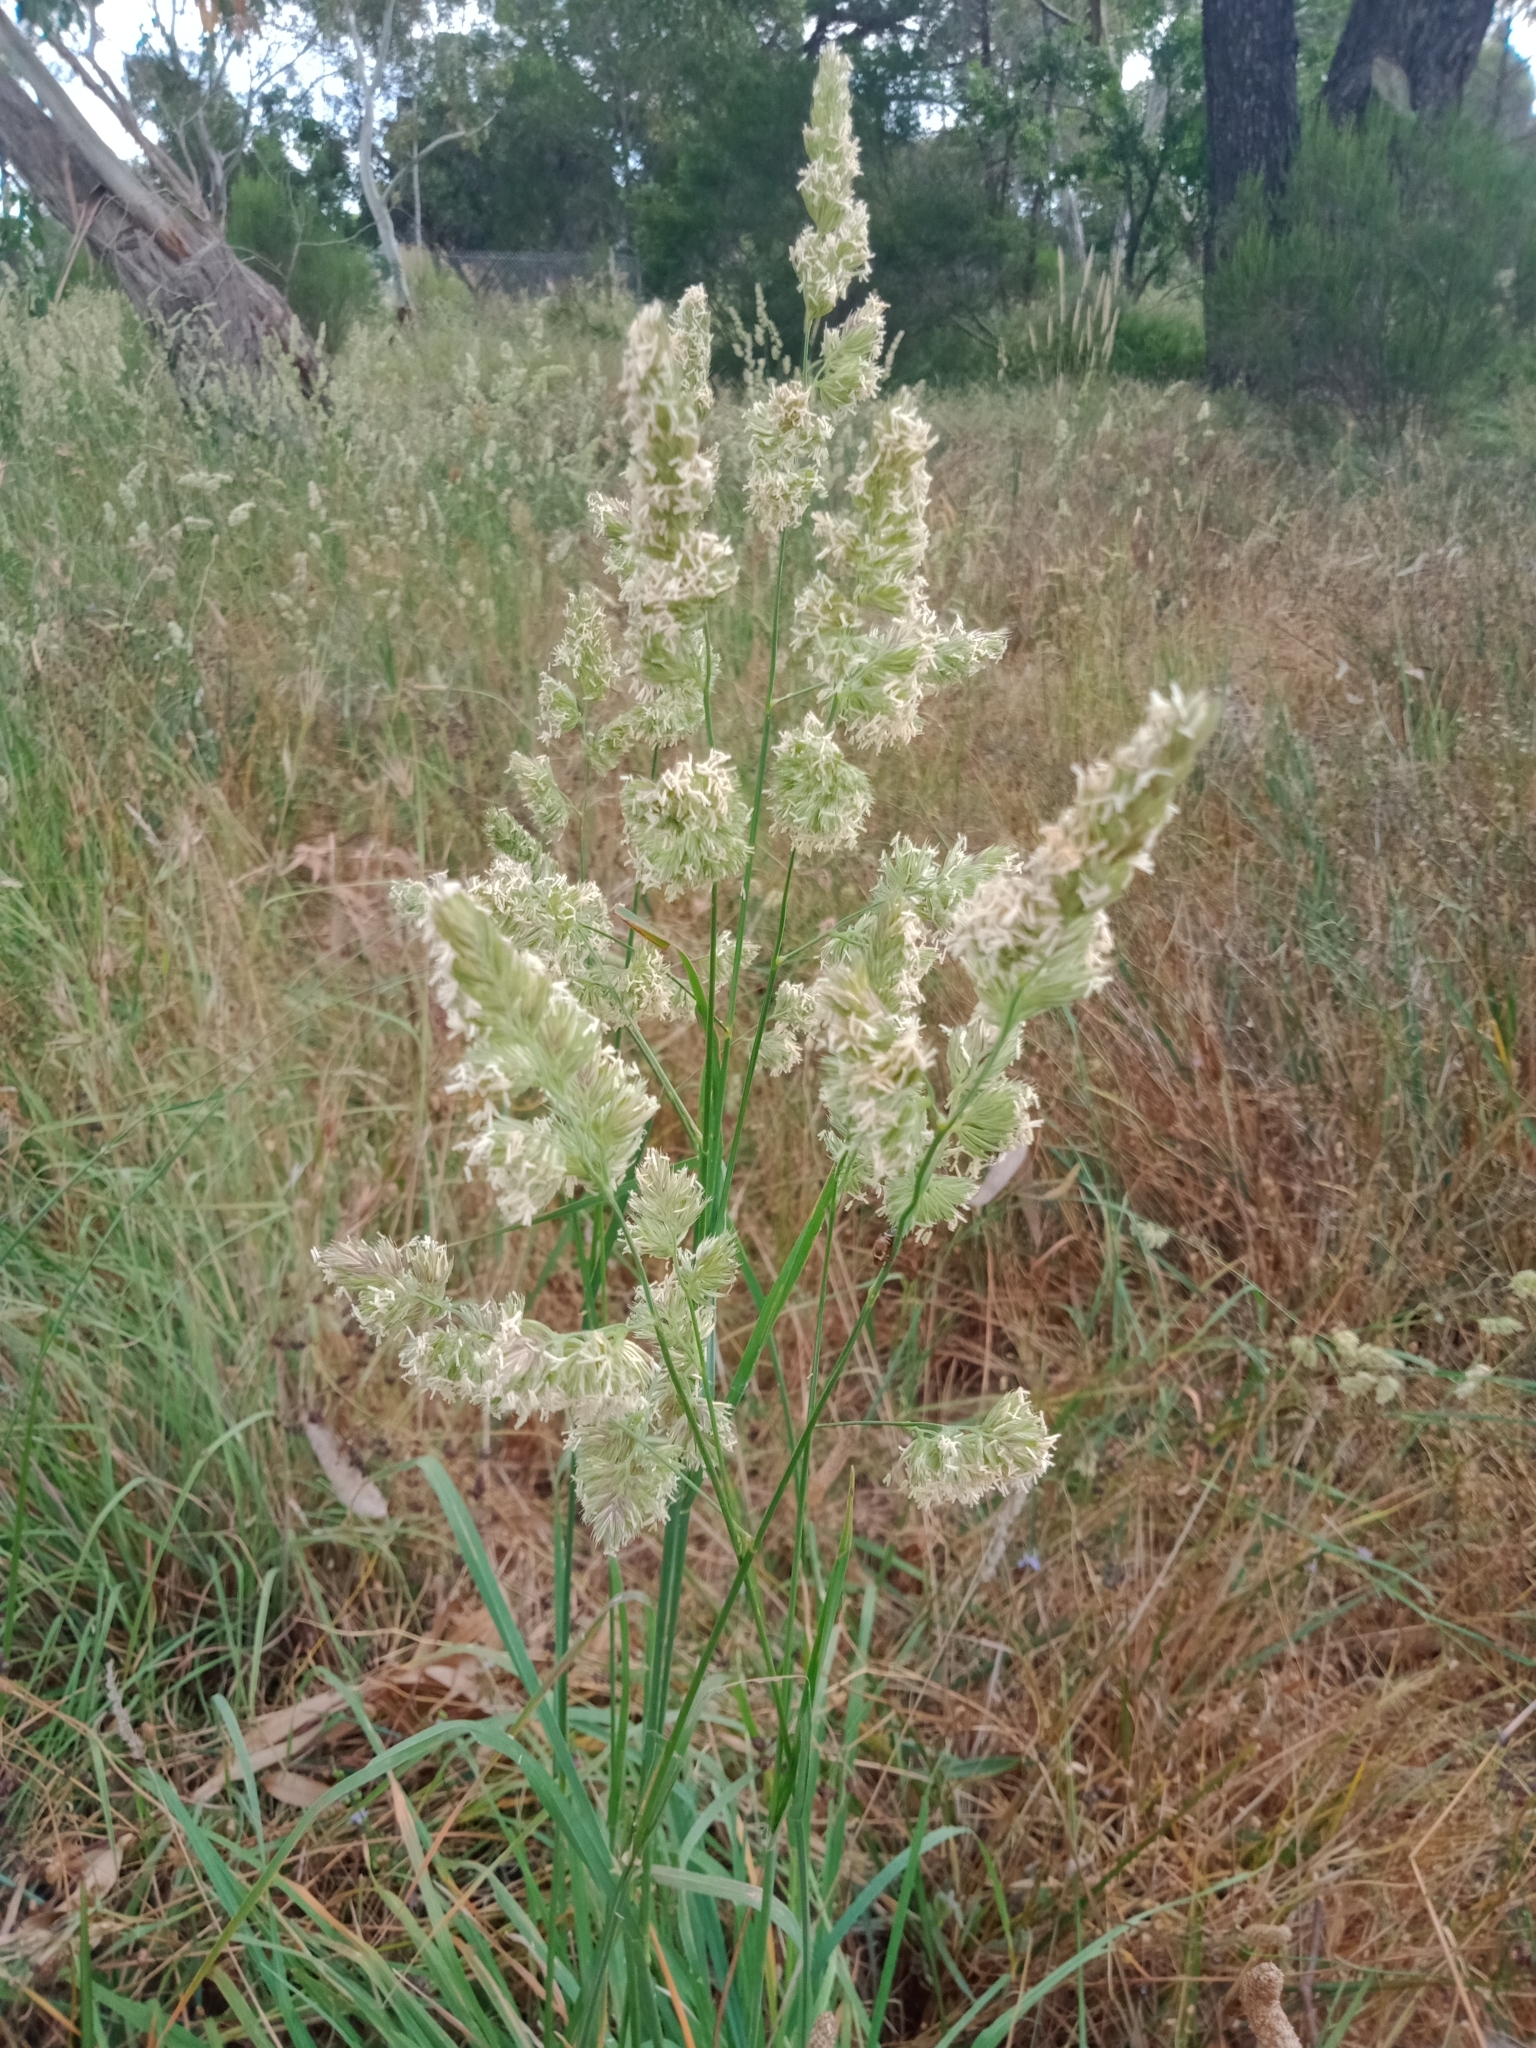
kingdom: Plantae
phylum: Tracheophyta
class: Liliopsida
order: Poales
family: Poaceae
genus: Dactylis
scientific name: Dactylis glomerata
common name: Orchardgrass
